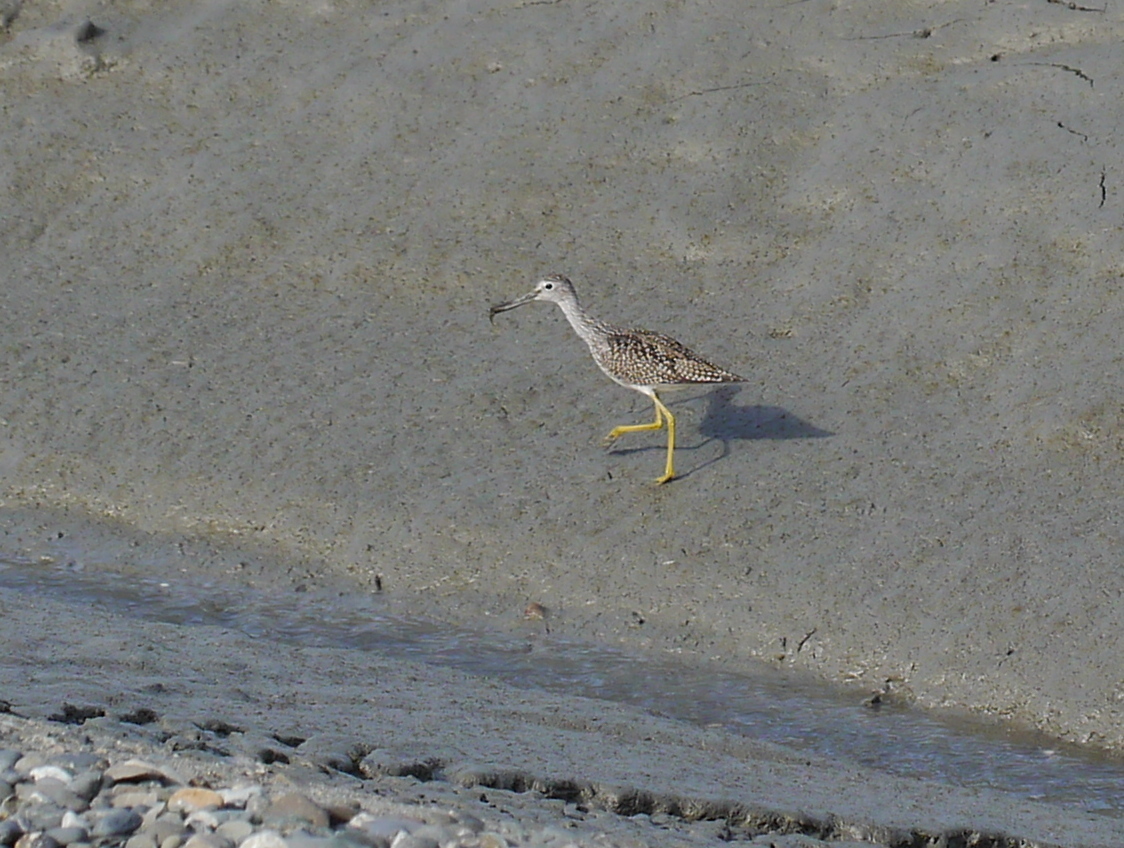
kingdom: Animalia
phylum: Chordata
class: Aves
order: Charadriiformes
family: Scolopacidae
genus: Tringa
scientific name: Tringa melanoleuca
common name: Greater yellowlegs
